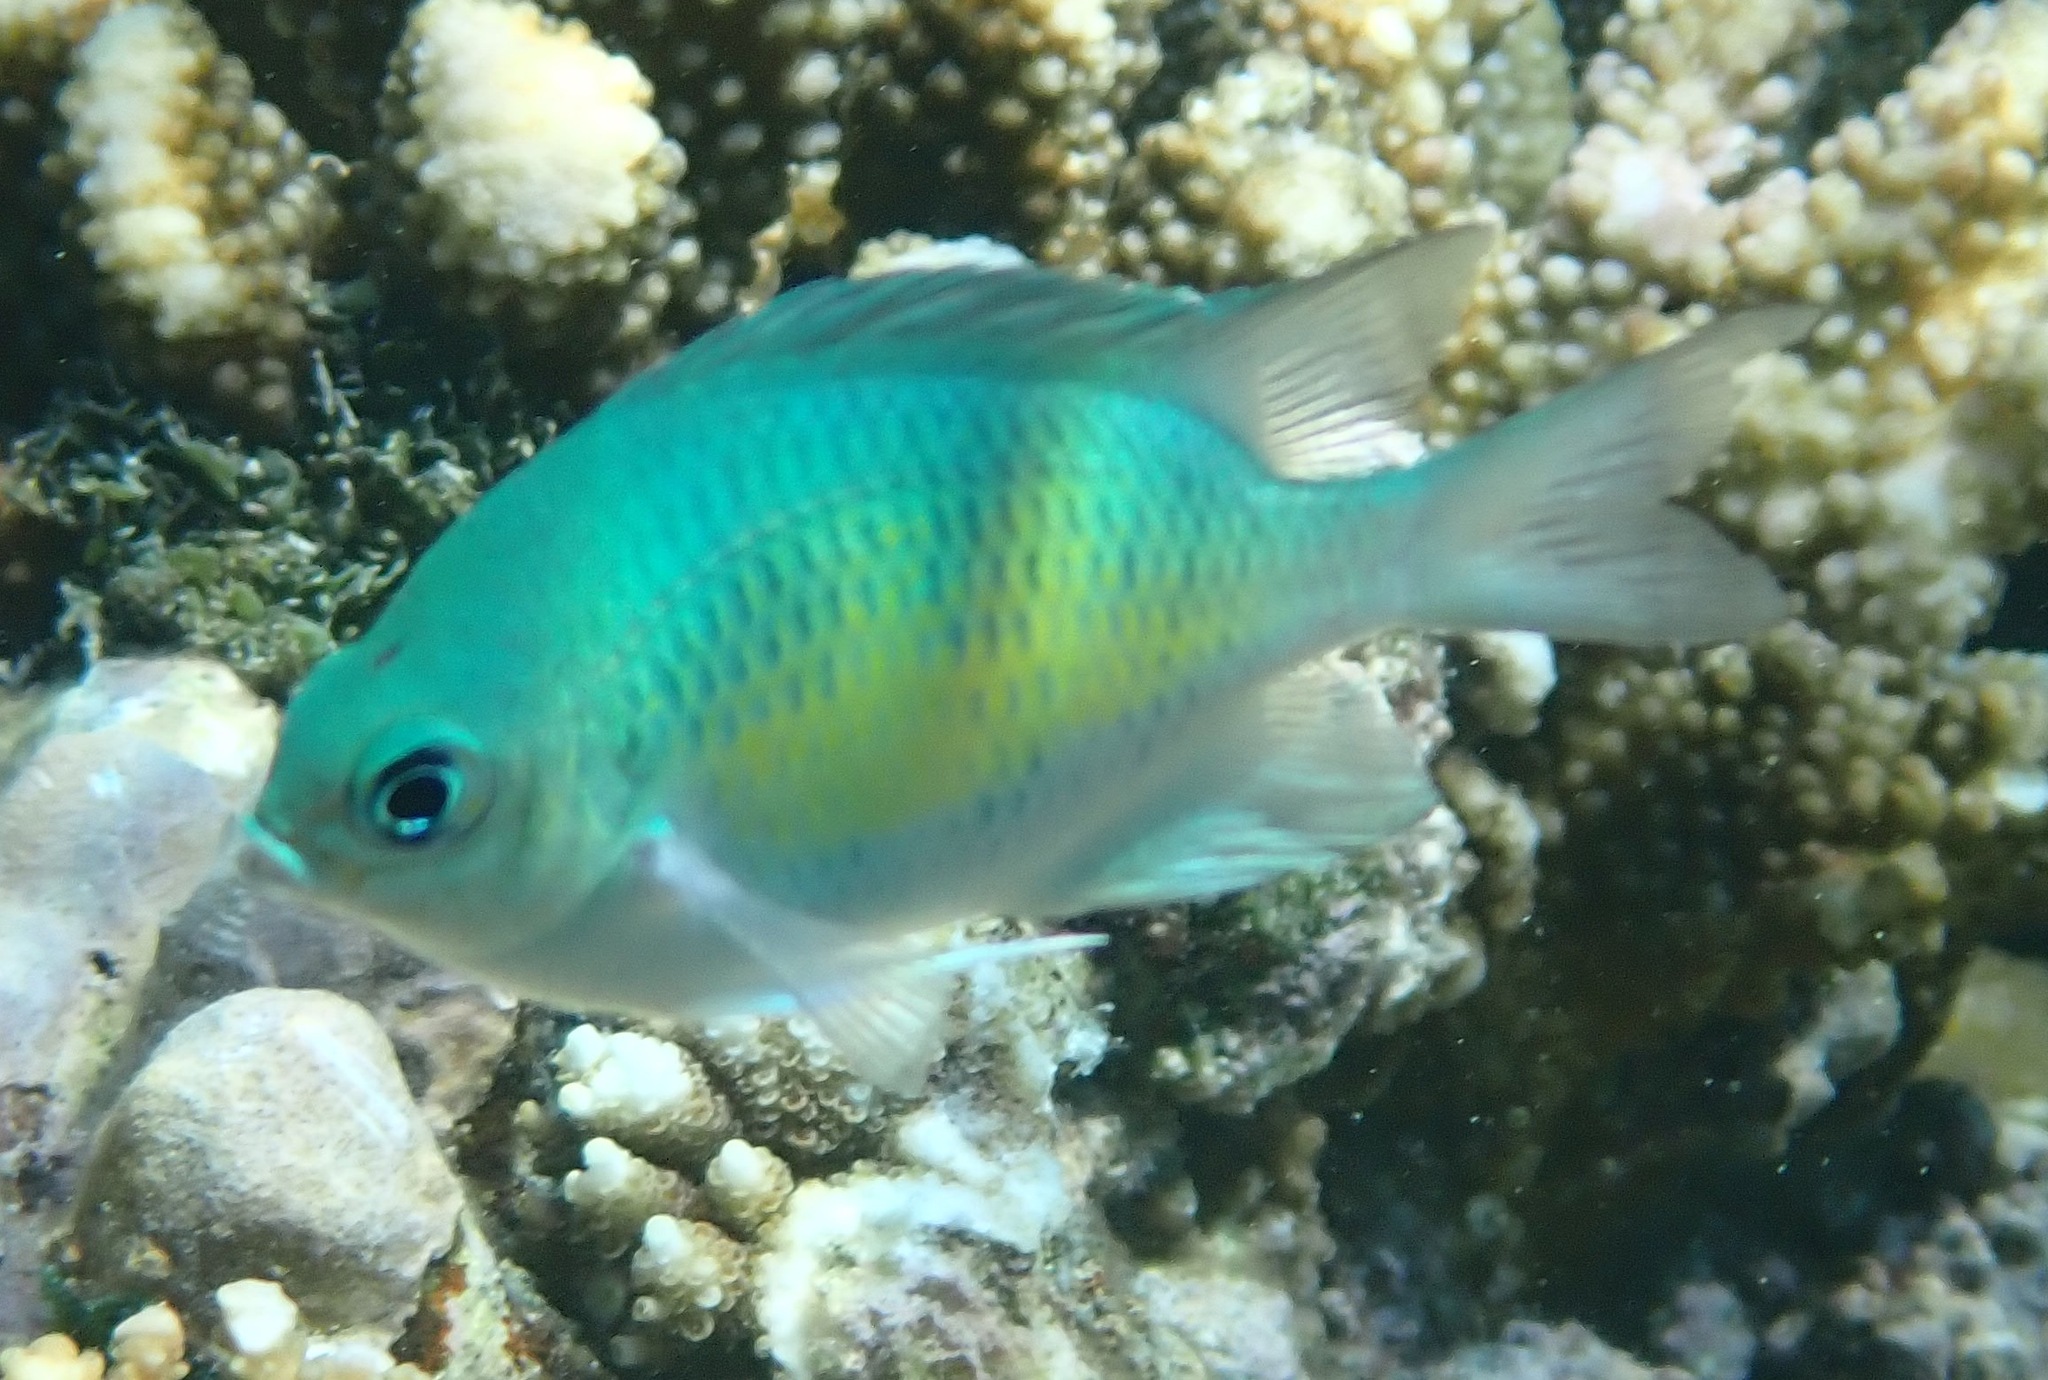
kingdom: Animalia
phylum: Chordata
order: Perciformes
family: Pomacentridae
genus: Amblyglyphidodon
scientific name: Amblyglyphidodon curacao
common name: Staghorn damsel
